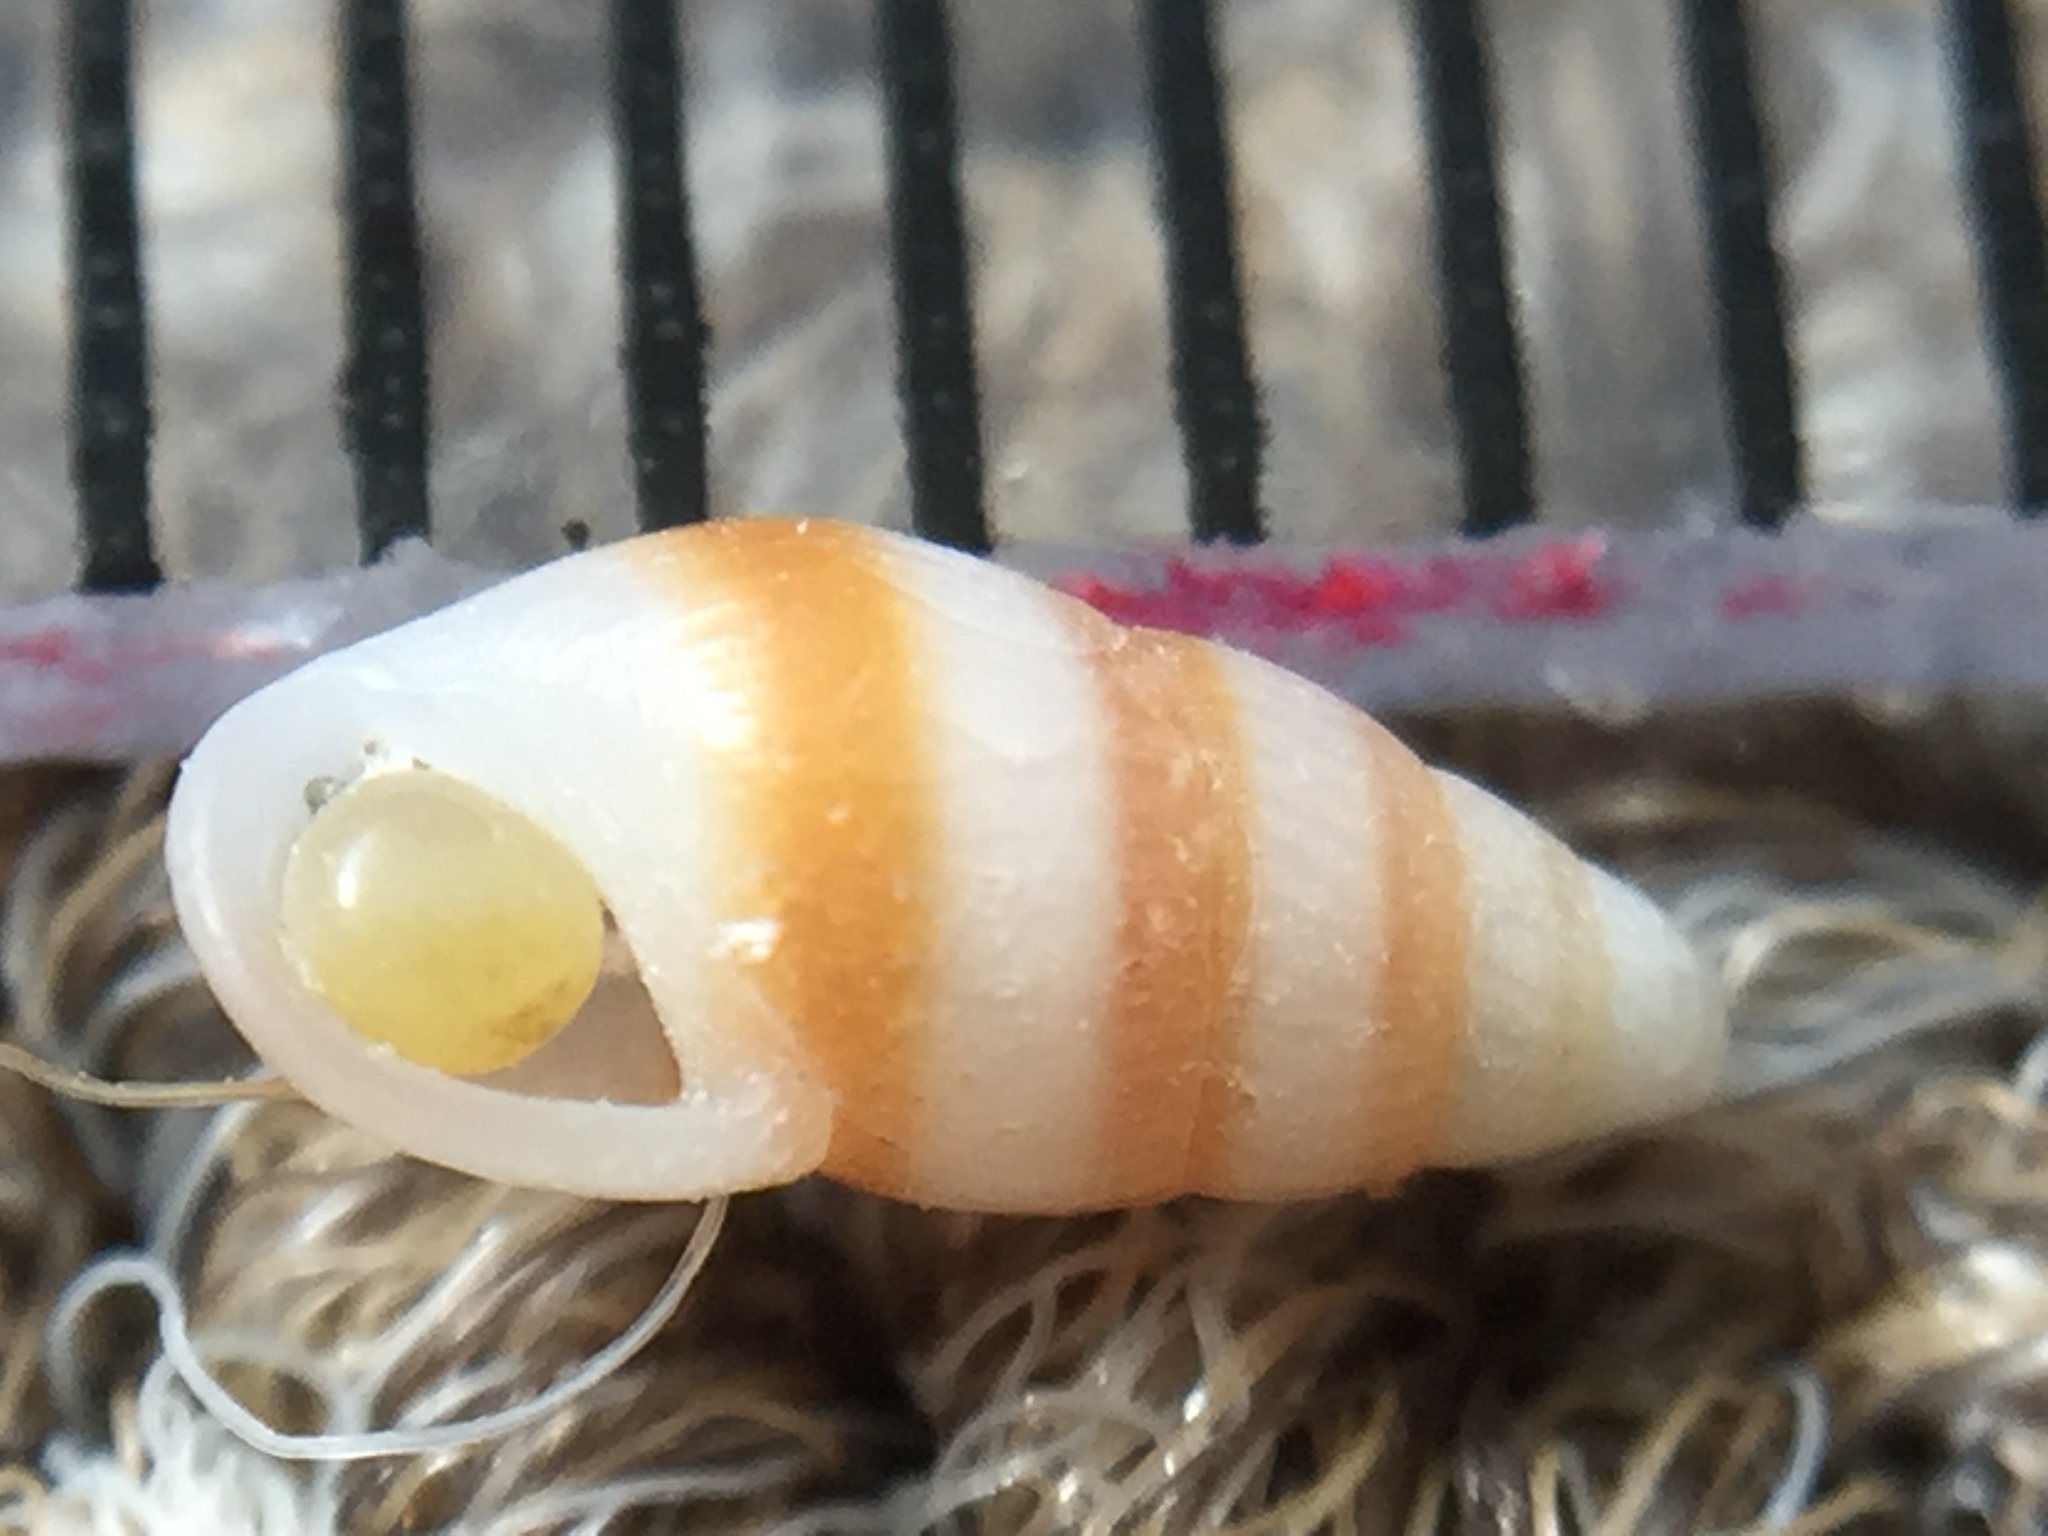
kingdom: Animalia
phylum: Mollusca
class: Gastropoda
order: Littorinimorpha
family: Rissoinidae
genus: Rissoina
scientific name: Rissoina chathamensis
